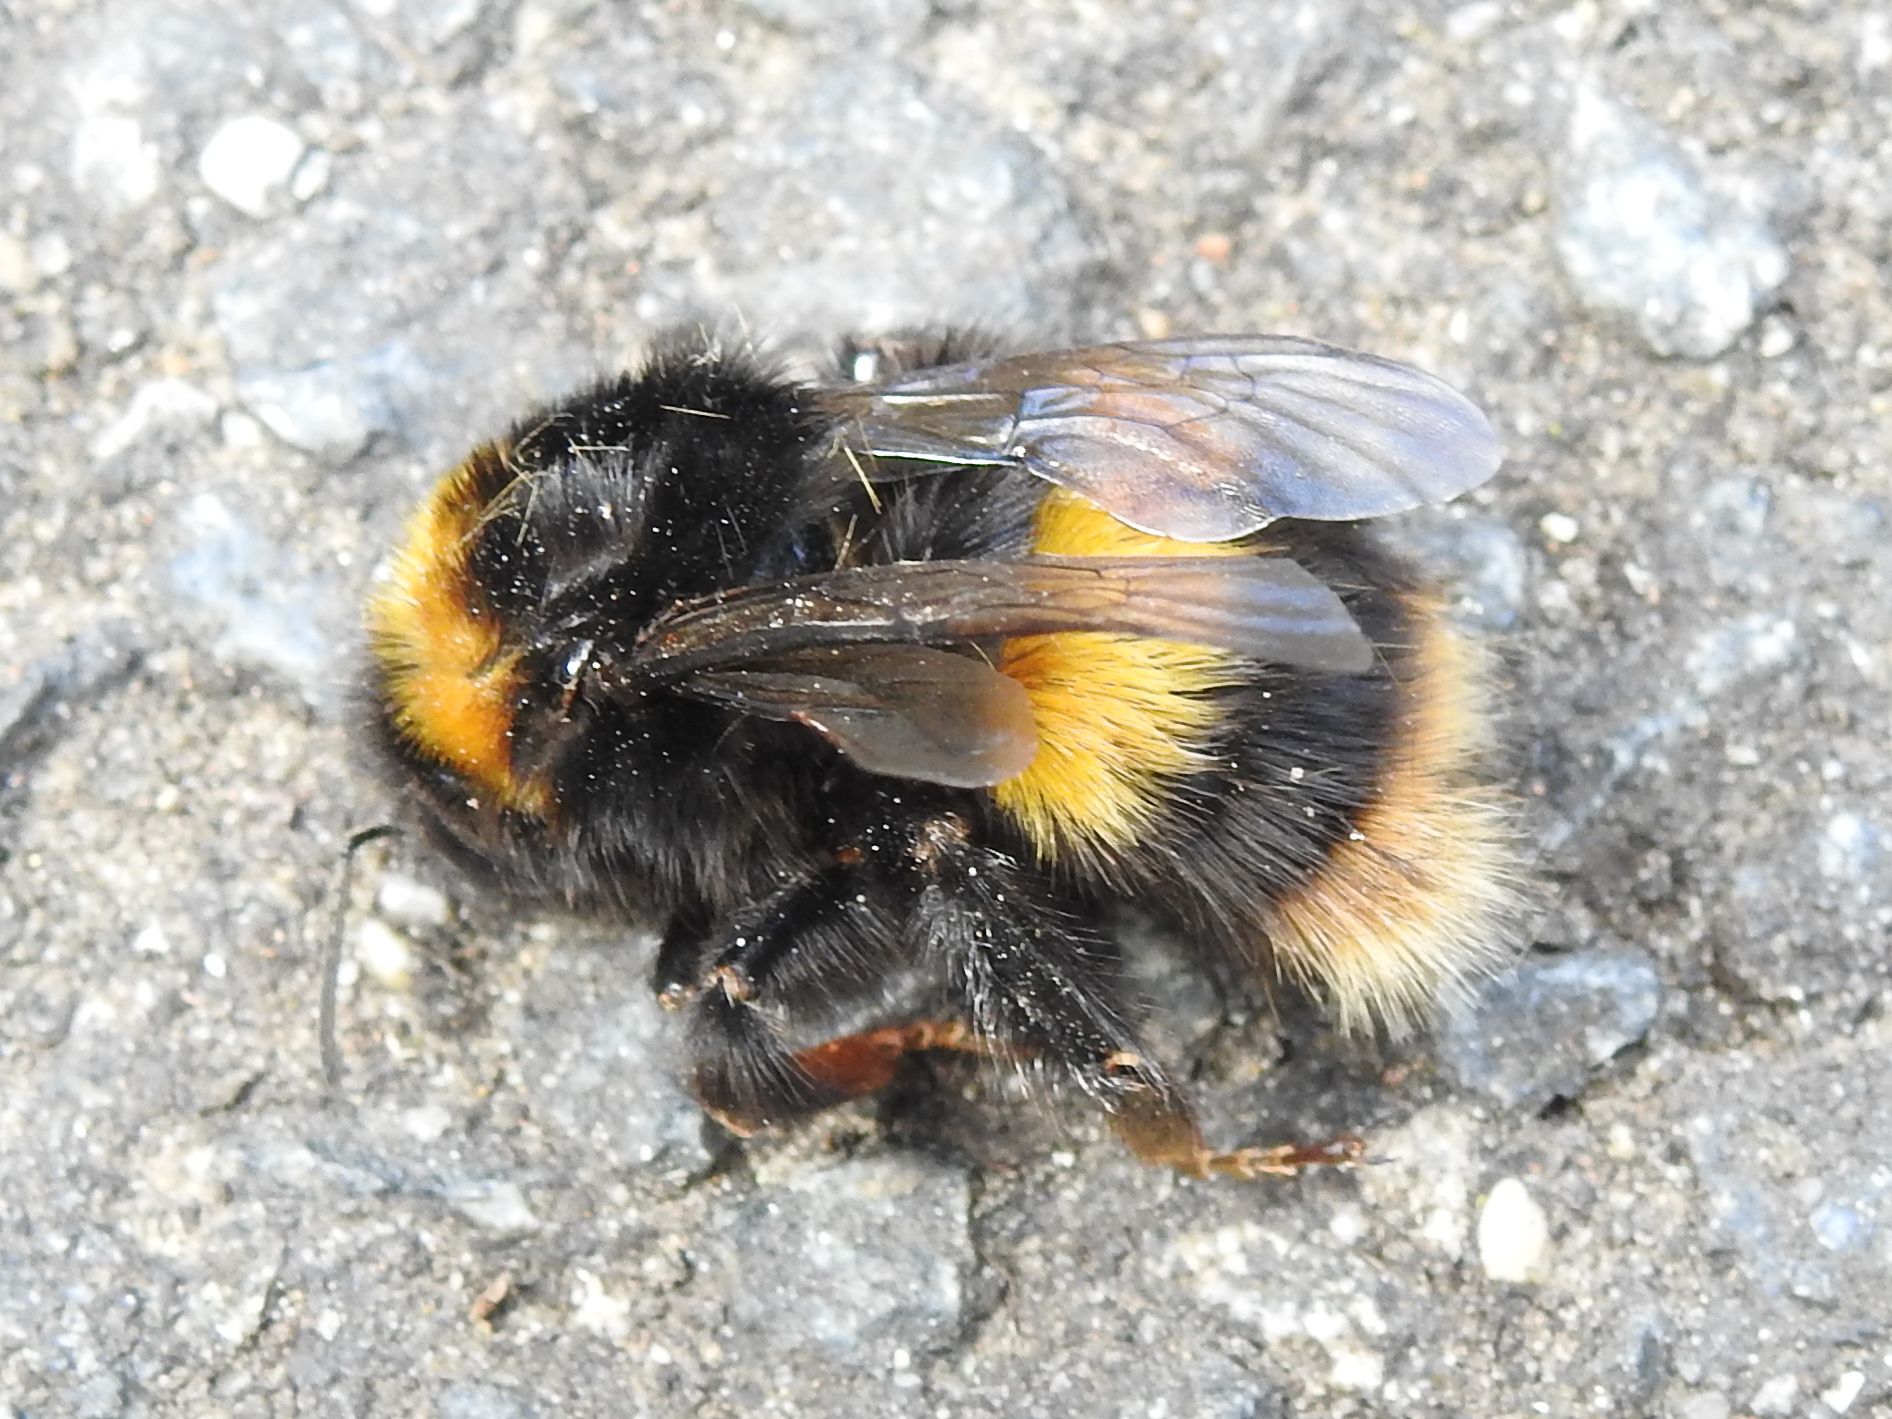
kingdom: Animalia
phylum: Arthropoda
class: Insecta
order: Hymenoptera
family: Apidae
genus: Bombus
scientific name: Bombus terrestris
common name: Buff-tailed bumblebee
